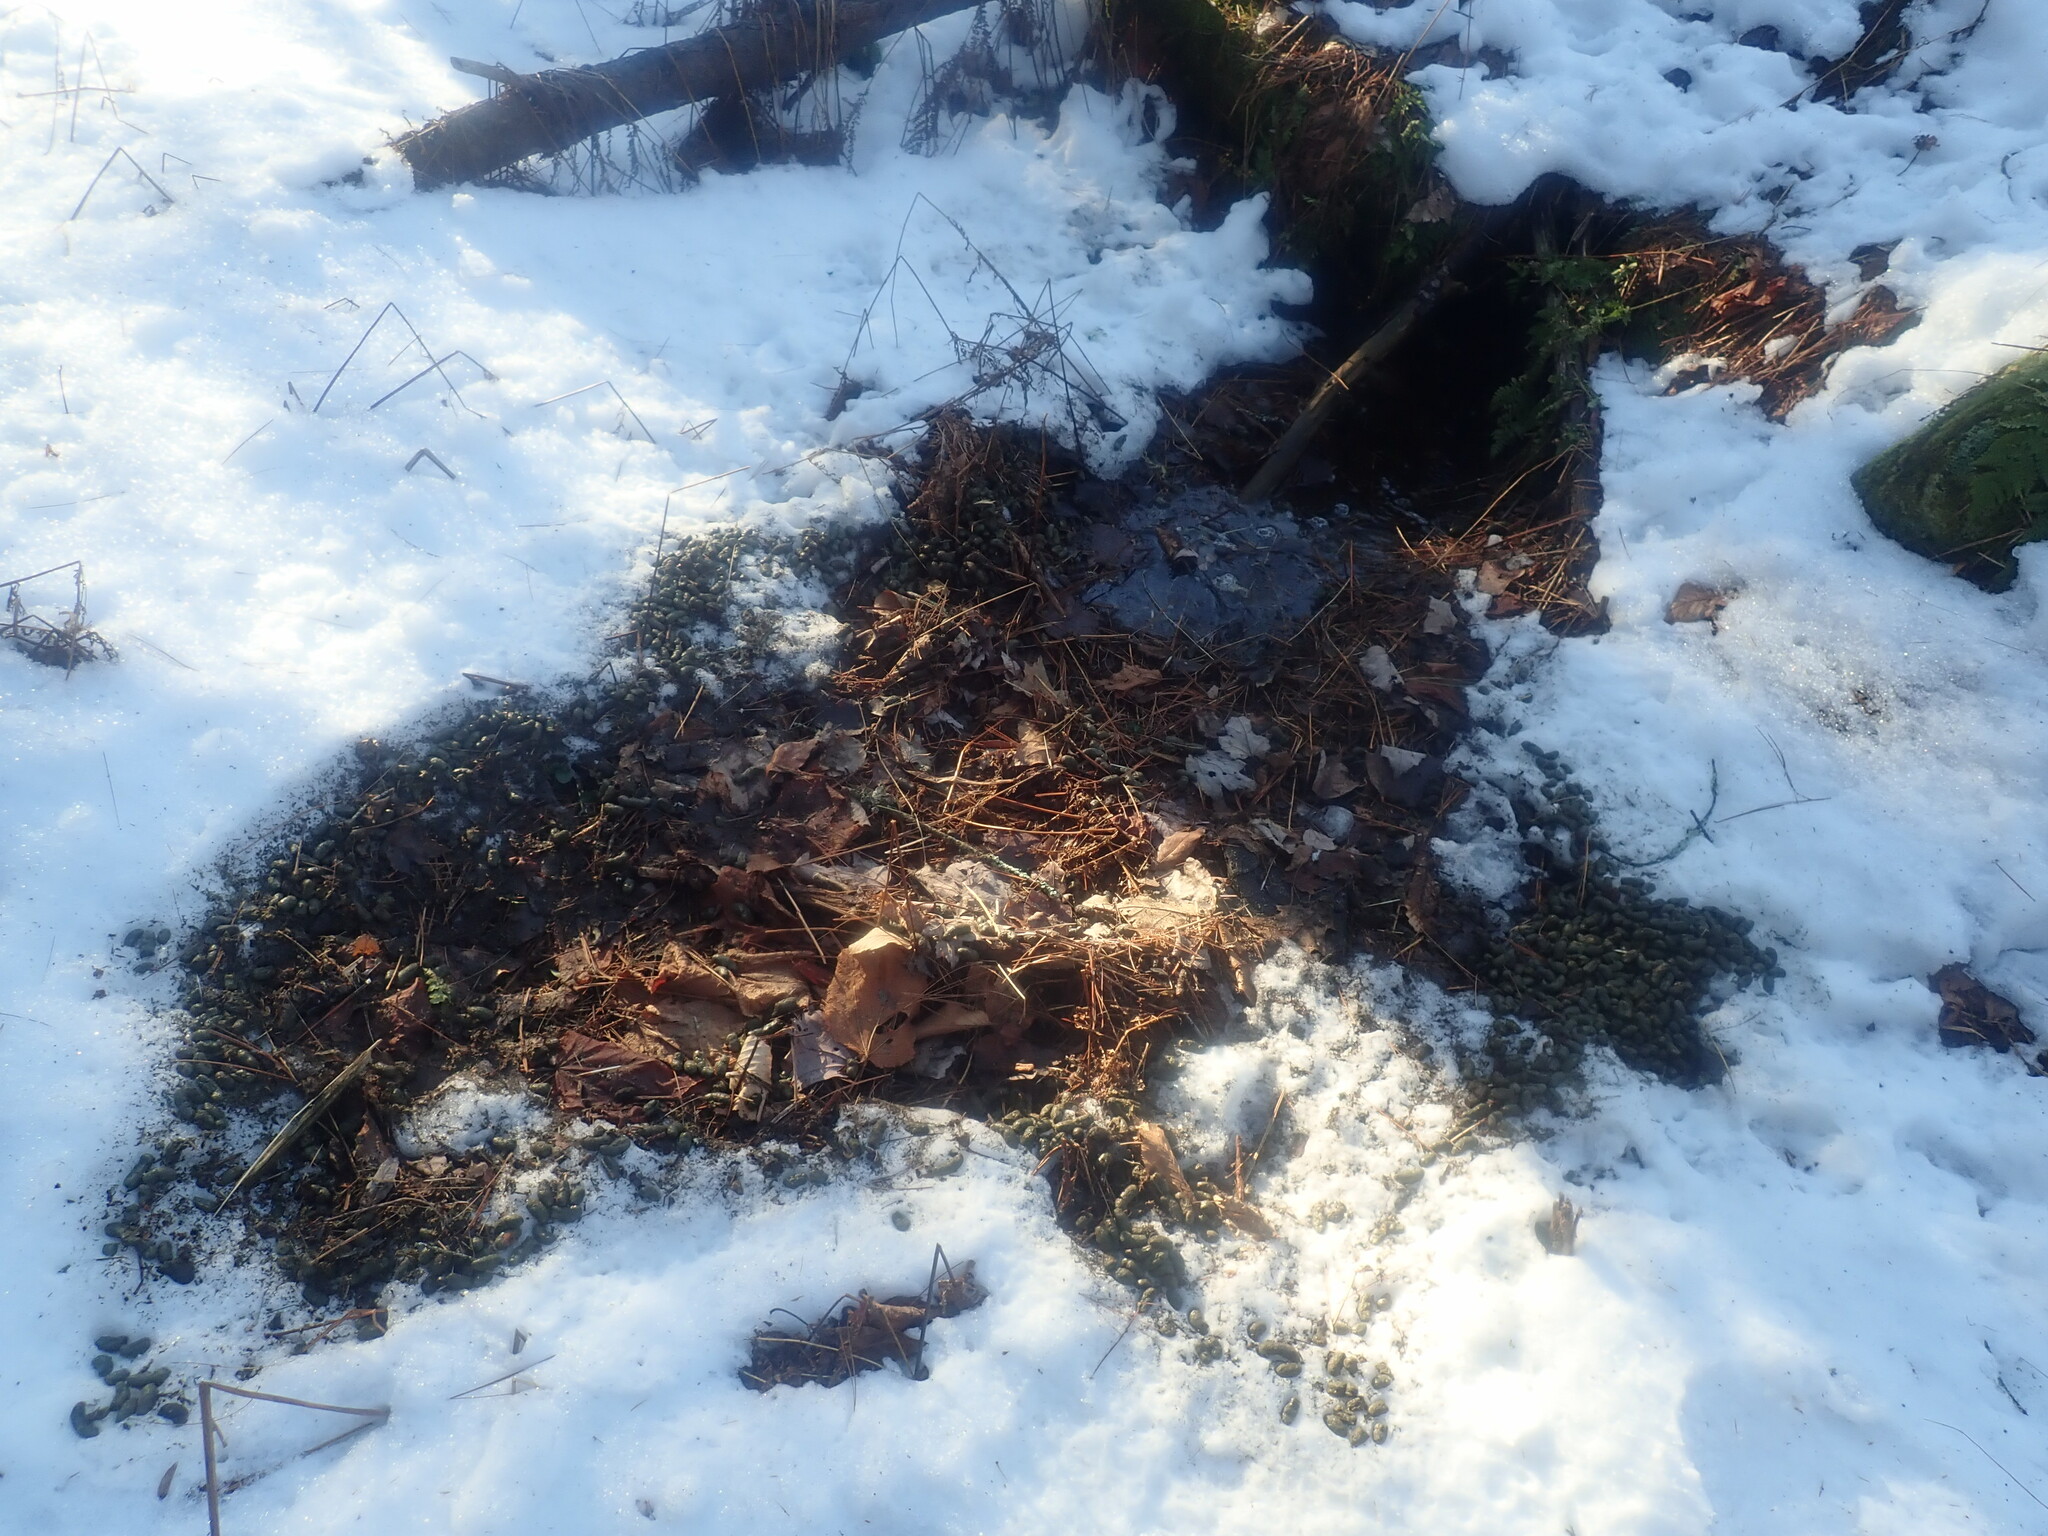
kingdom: Animalia
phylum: Chordata
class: Mammalia
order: Rodentia
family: Erethizontidae
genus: Erethizon
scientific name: Erethizon dorsatus
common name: North american porcupine
